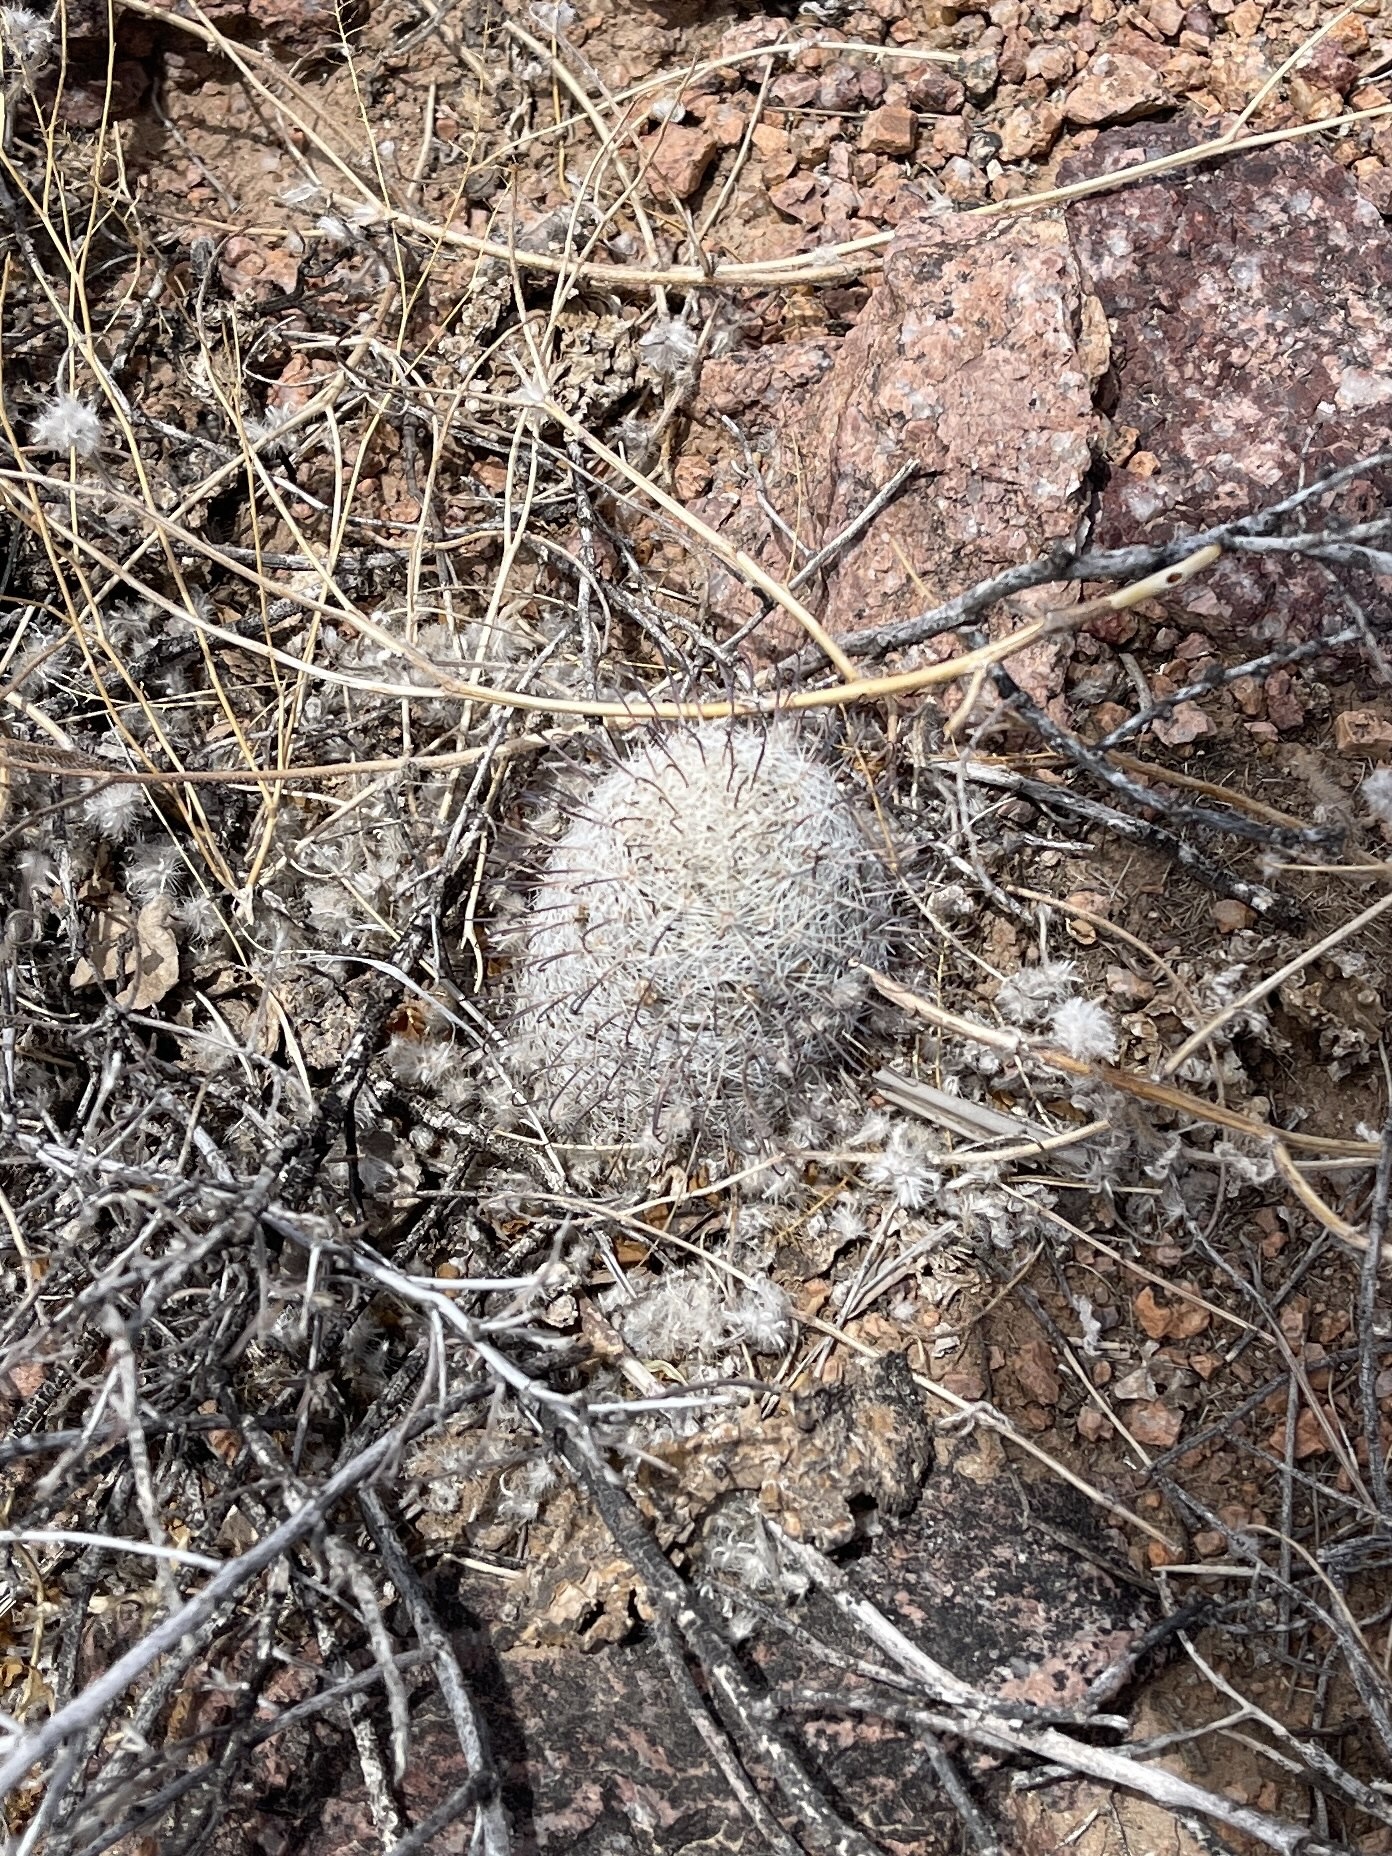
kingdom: Plantae
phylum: Tracheophyta
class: Magnoliopsida
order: Caryophyllales
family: Cactaceae
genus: Cochemiea
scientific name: Cochemiea grahamii
